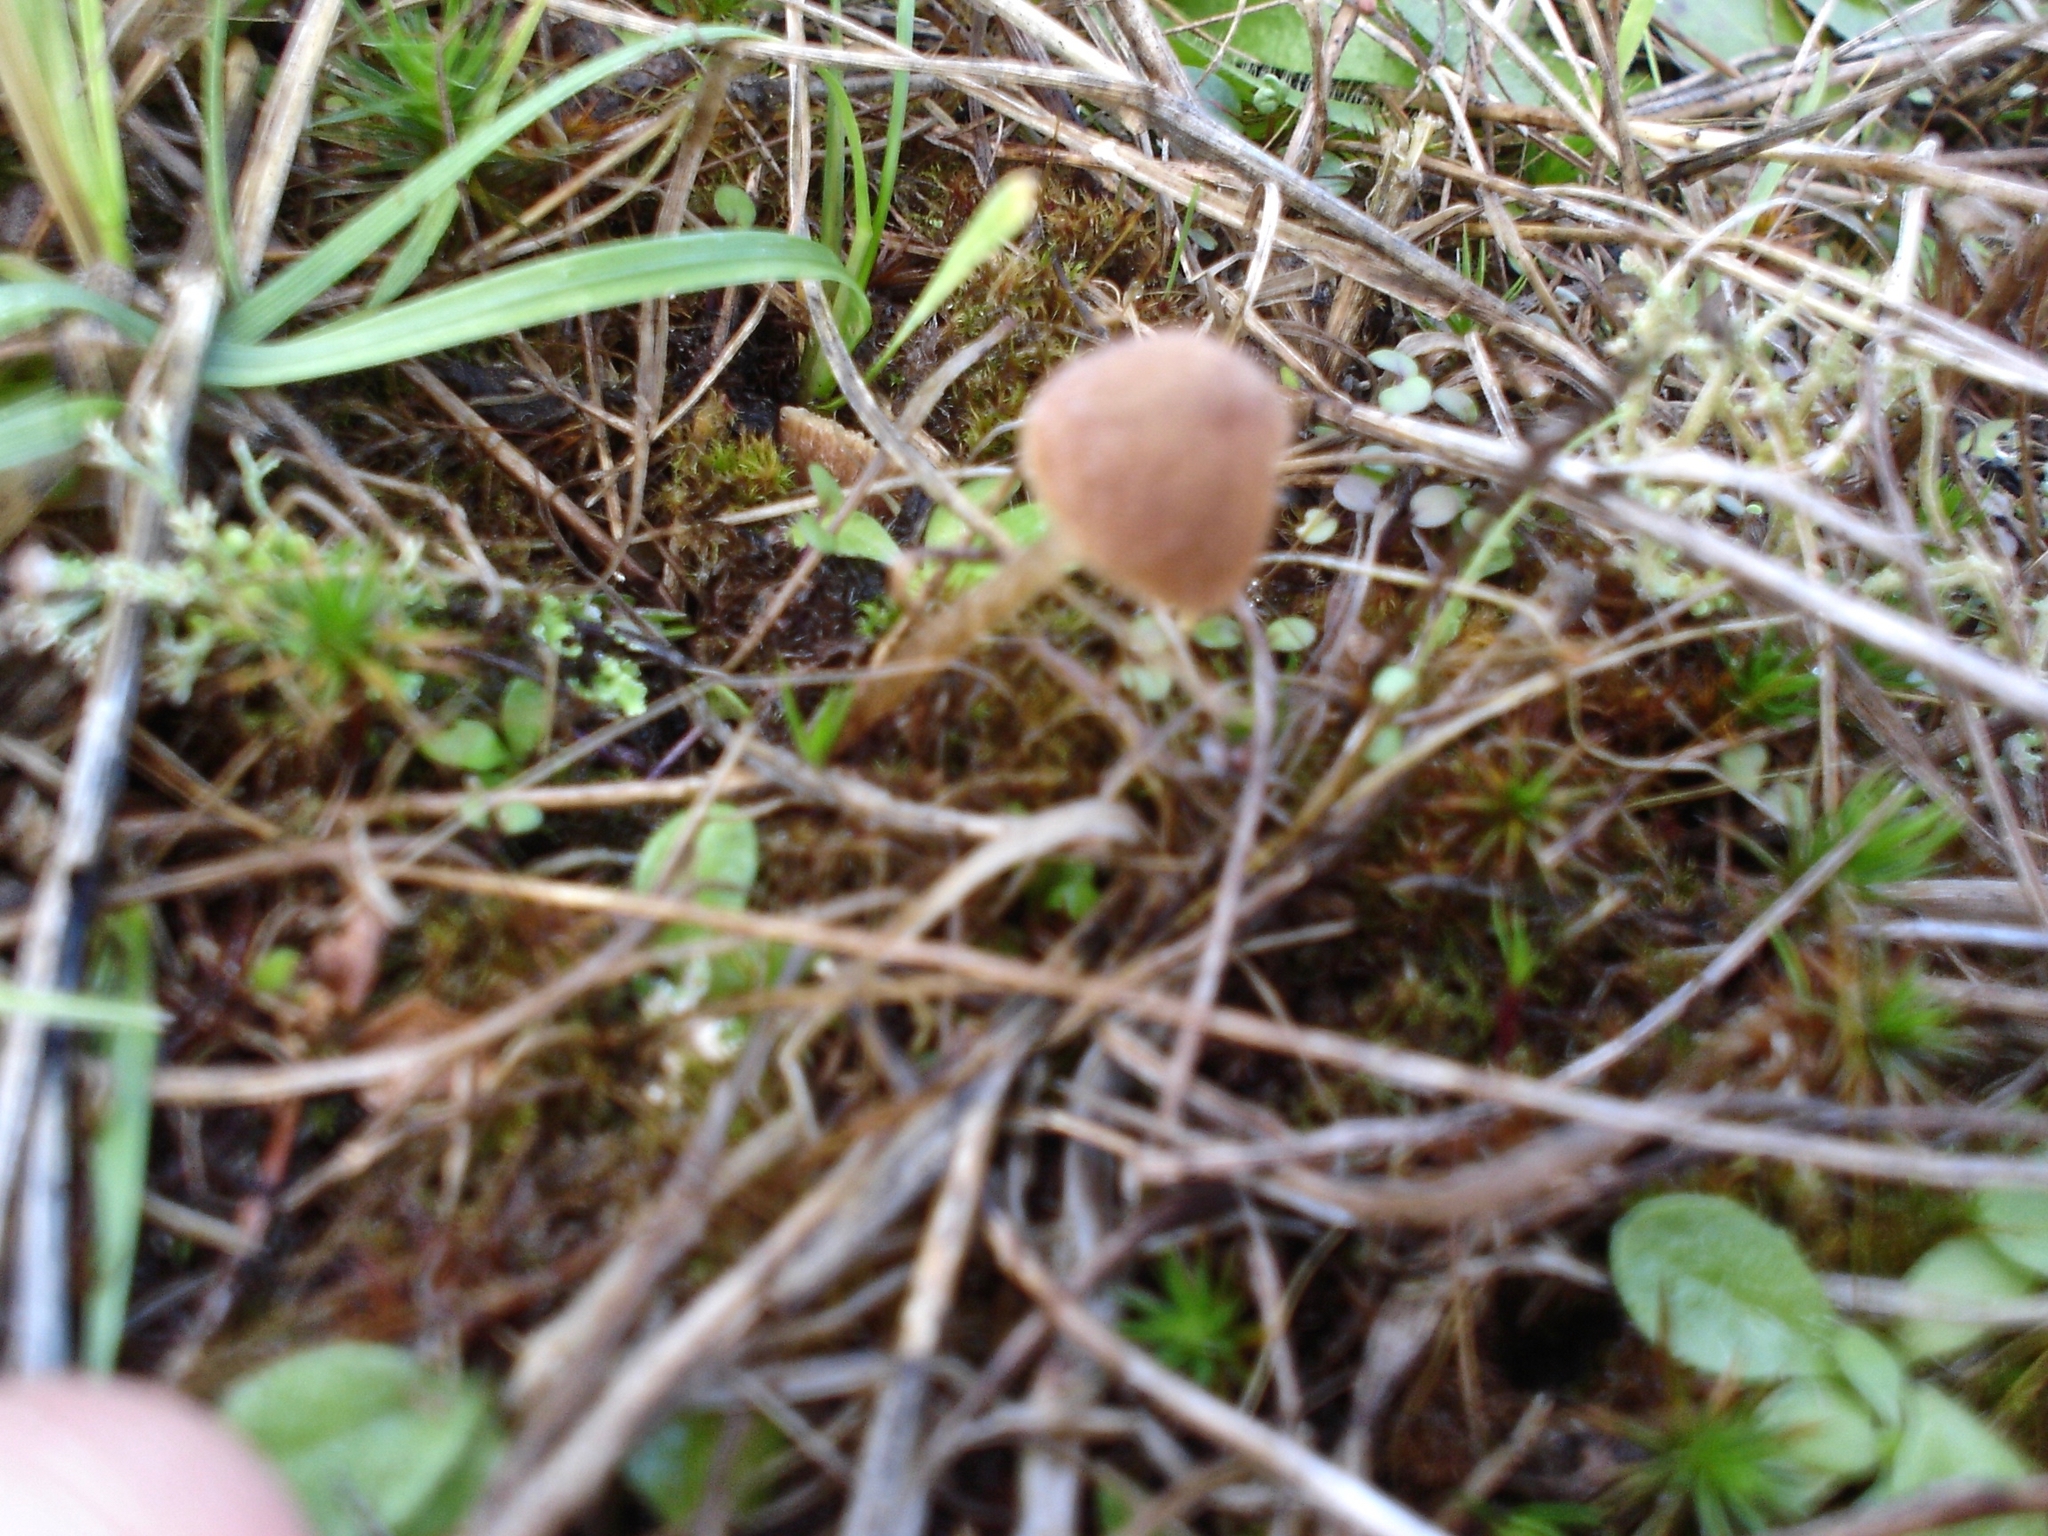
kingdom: Fungi
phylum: Basidiomycota
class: Agaricomycetes
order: Agaricales
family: Psathyrellaceae
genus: Psathyrella
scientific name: Psathyrella flexispora
